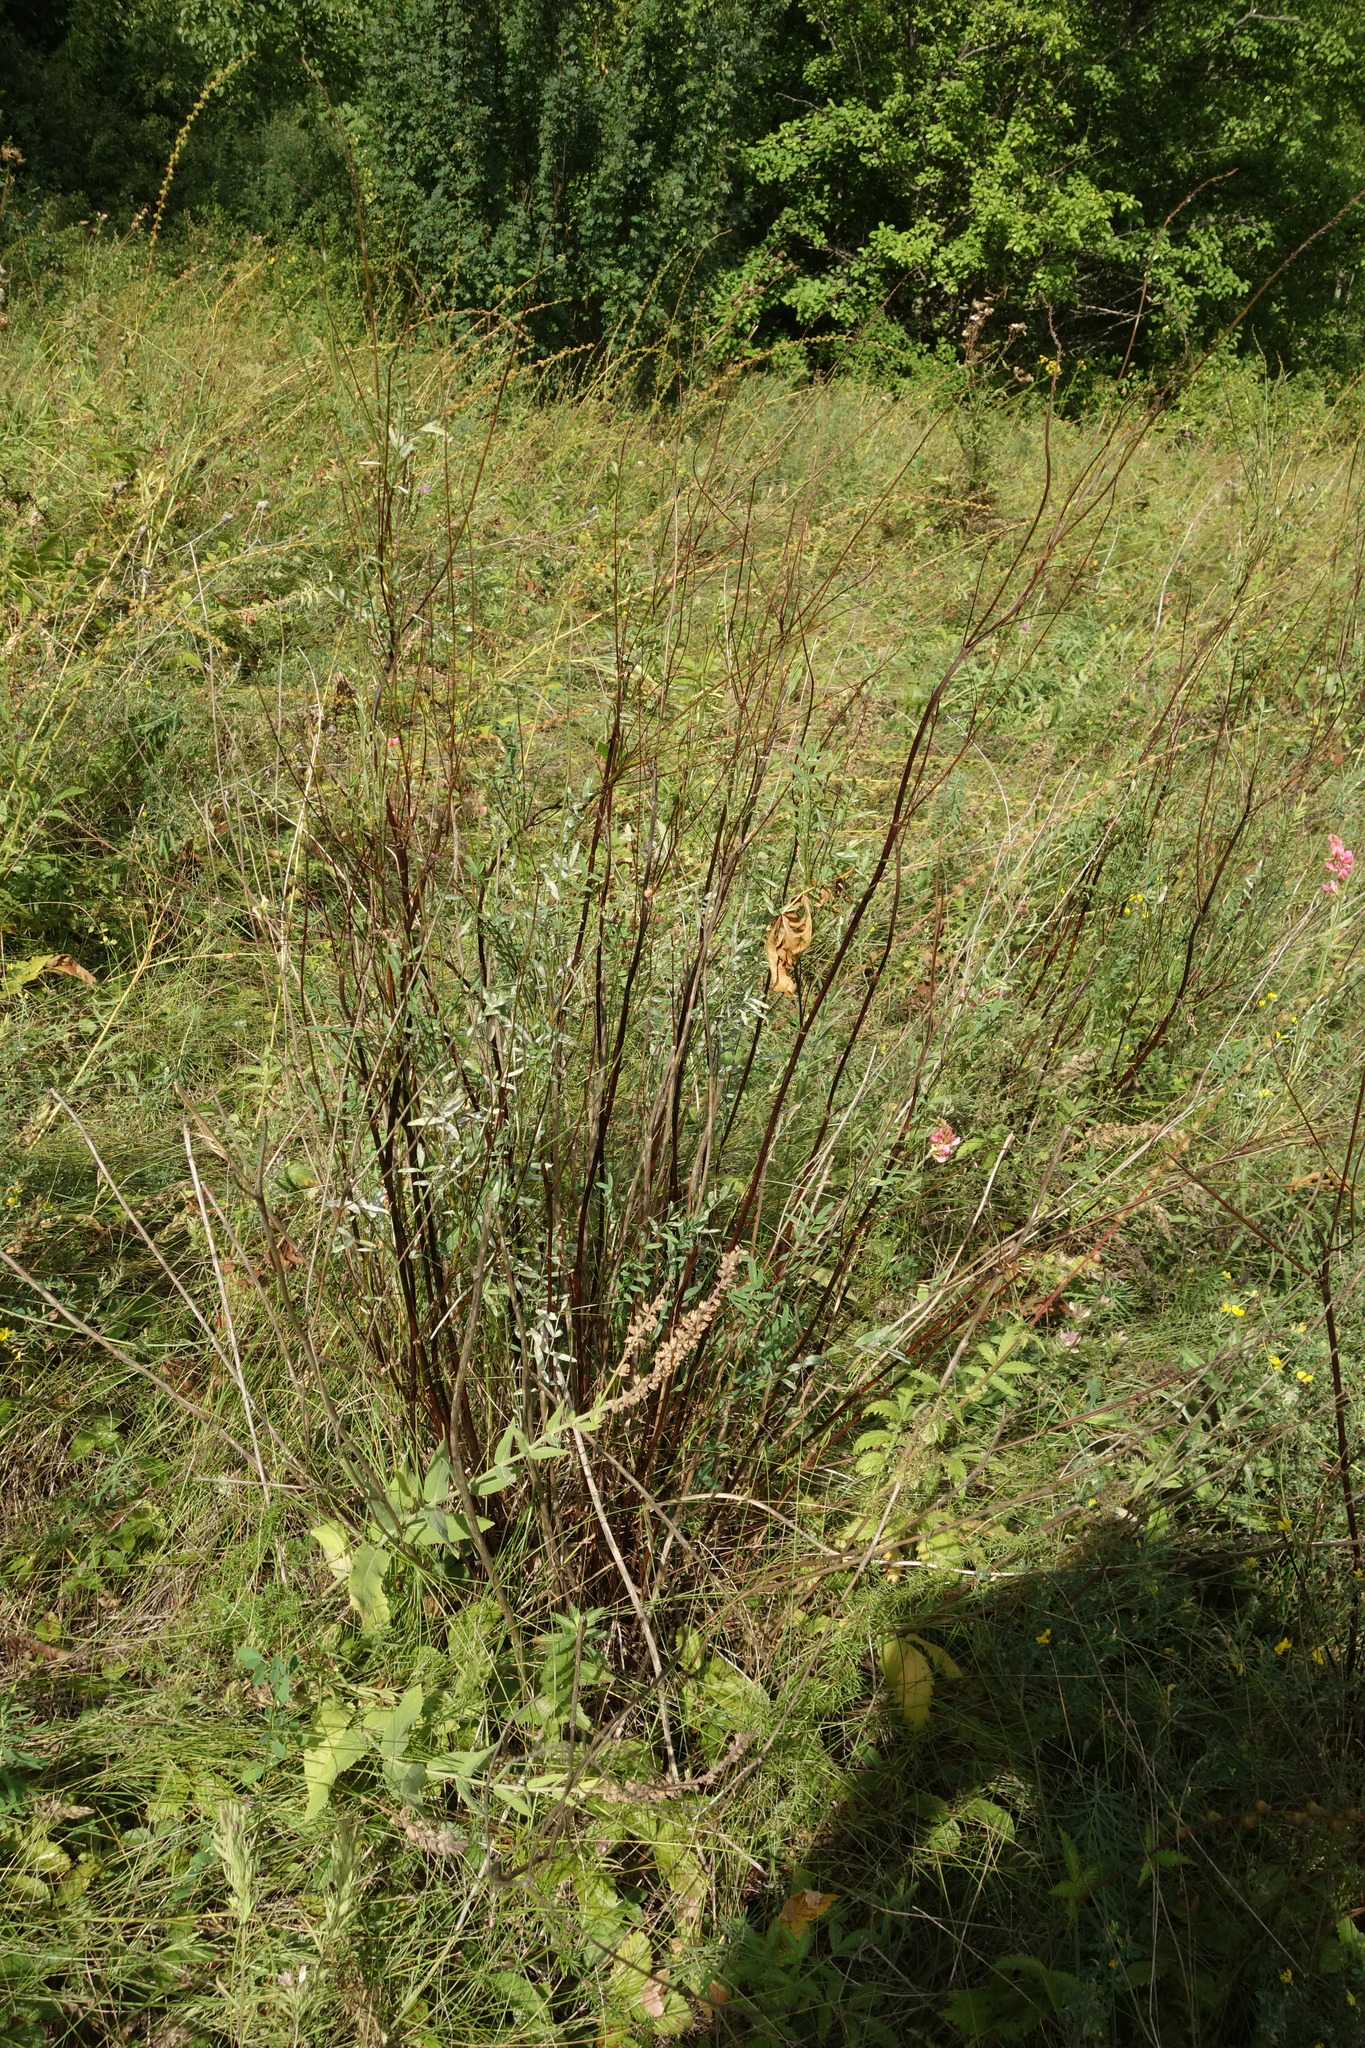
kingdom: Plantae
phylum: Tracheophyta
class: Magnoliopsida
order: Fabales
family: Fabaceae
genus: Onobrychis
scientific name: Onobrychis viciifolia
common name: Sainfoin
